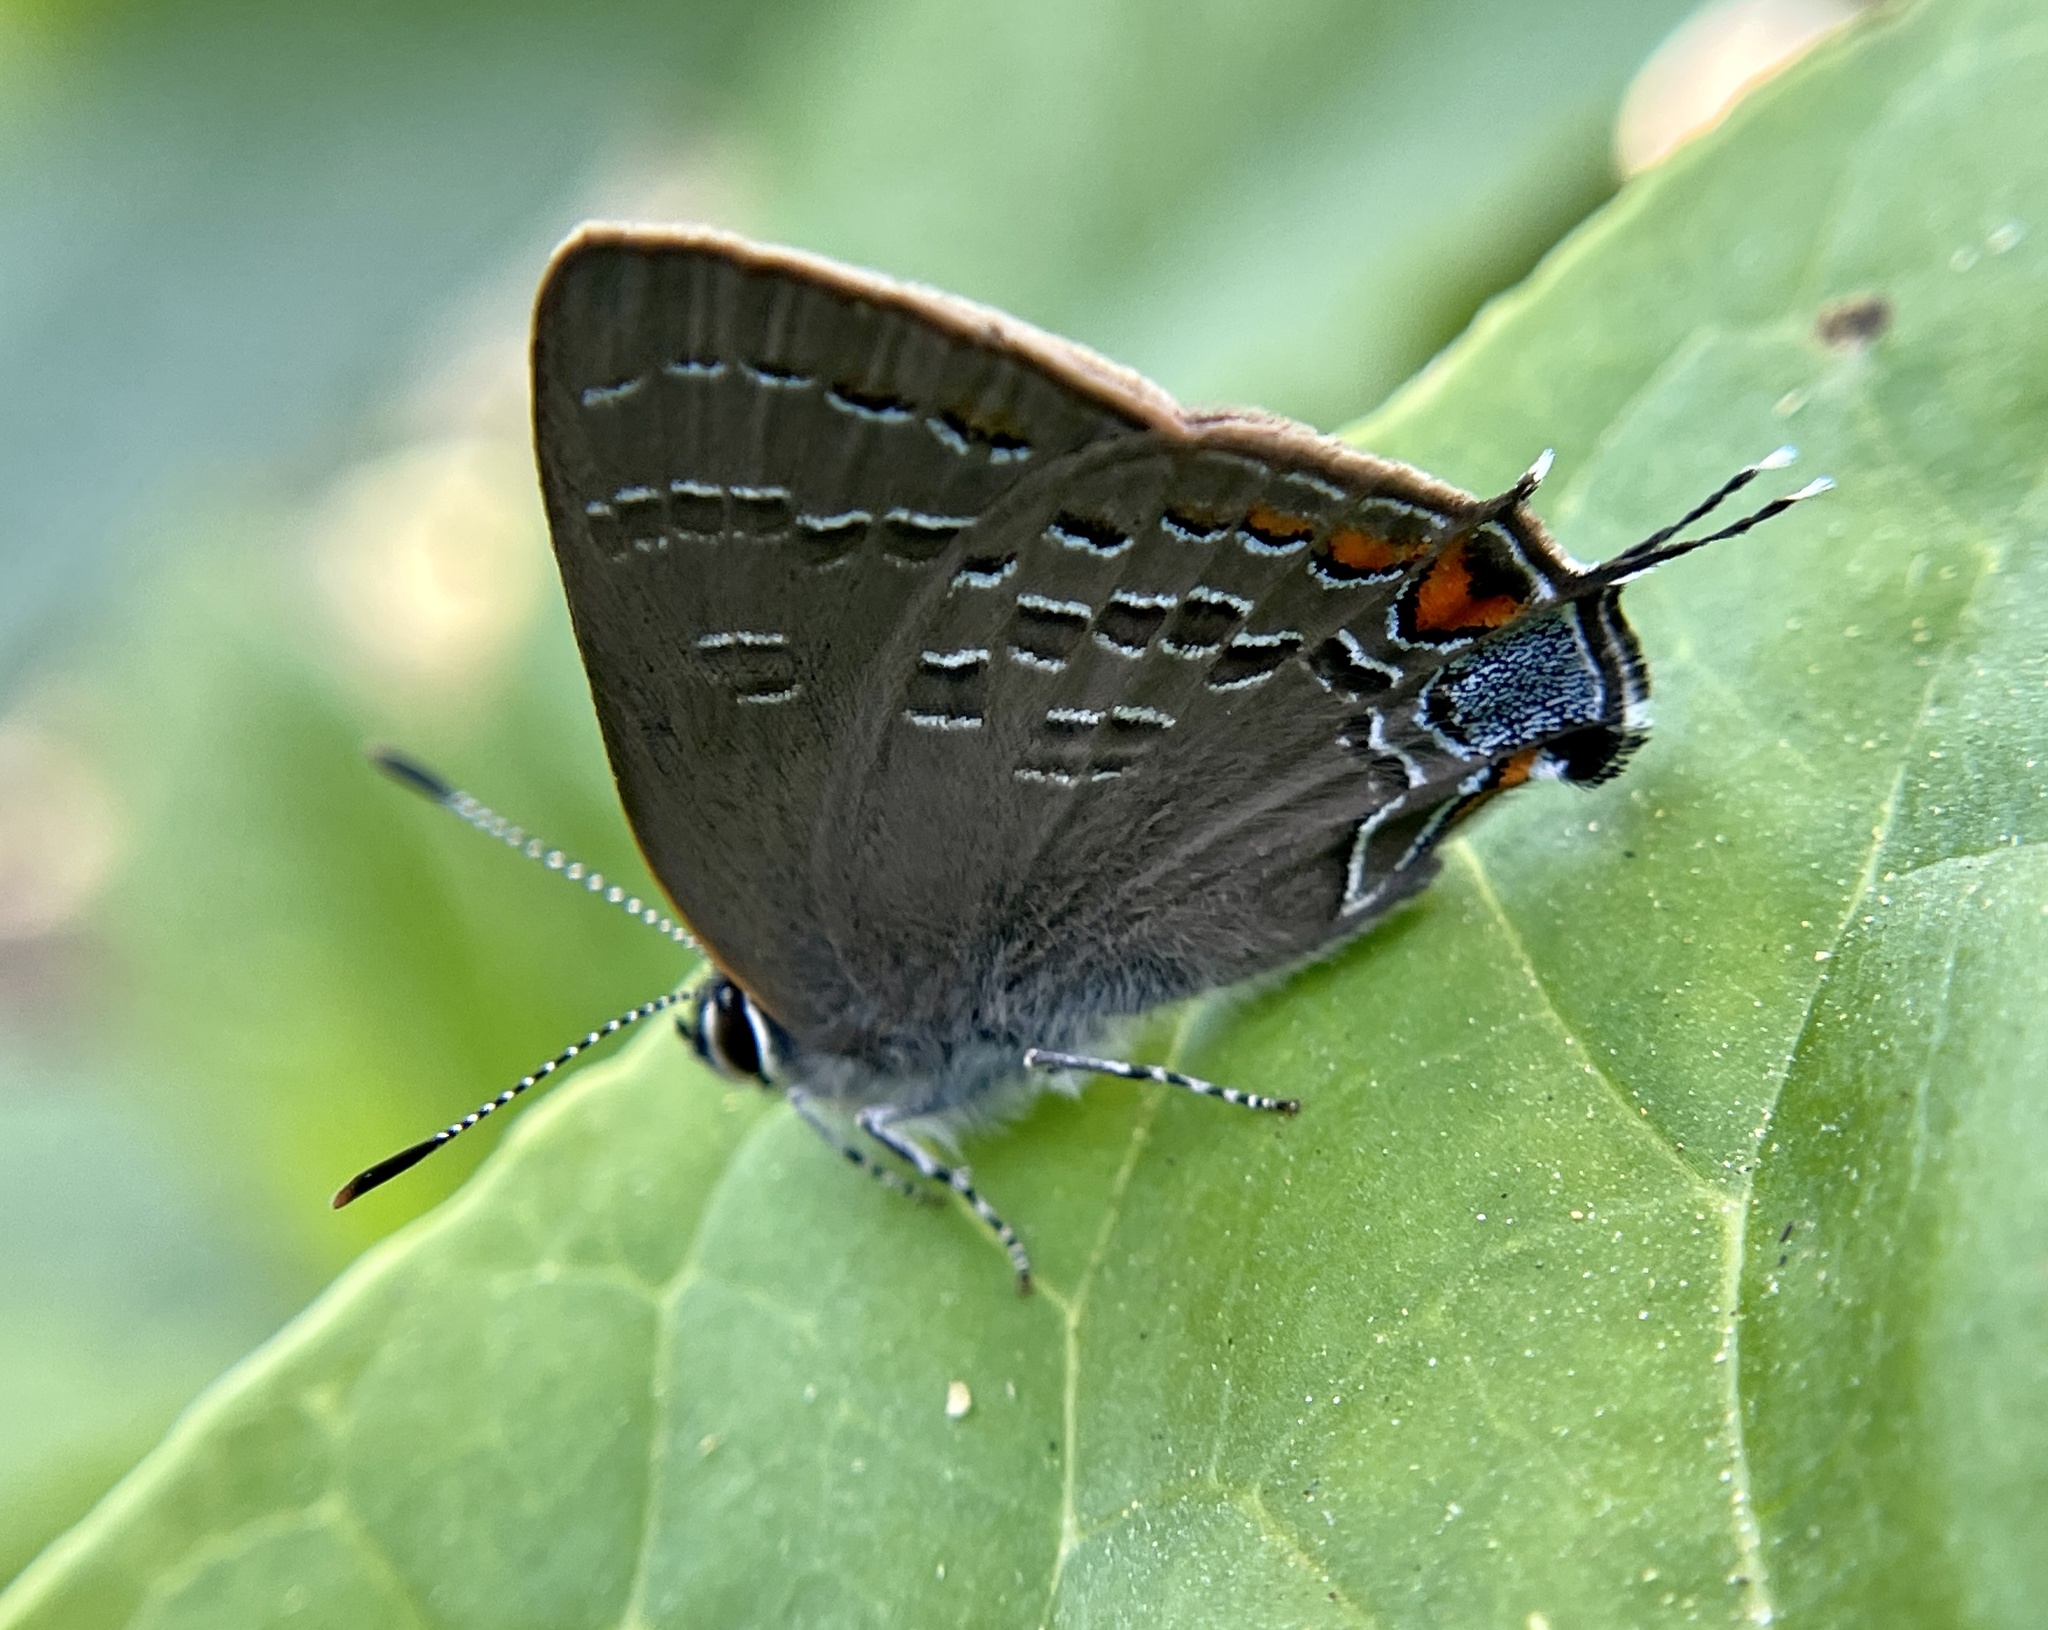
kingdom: Animalia
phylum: Arthropoda
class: Insecta
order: Lepidoptera
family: Lycaenidae
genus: Satyrium
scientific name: Satyrium calanus
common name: Banded hairstreak
